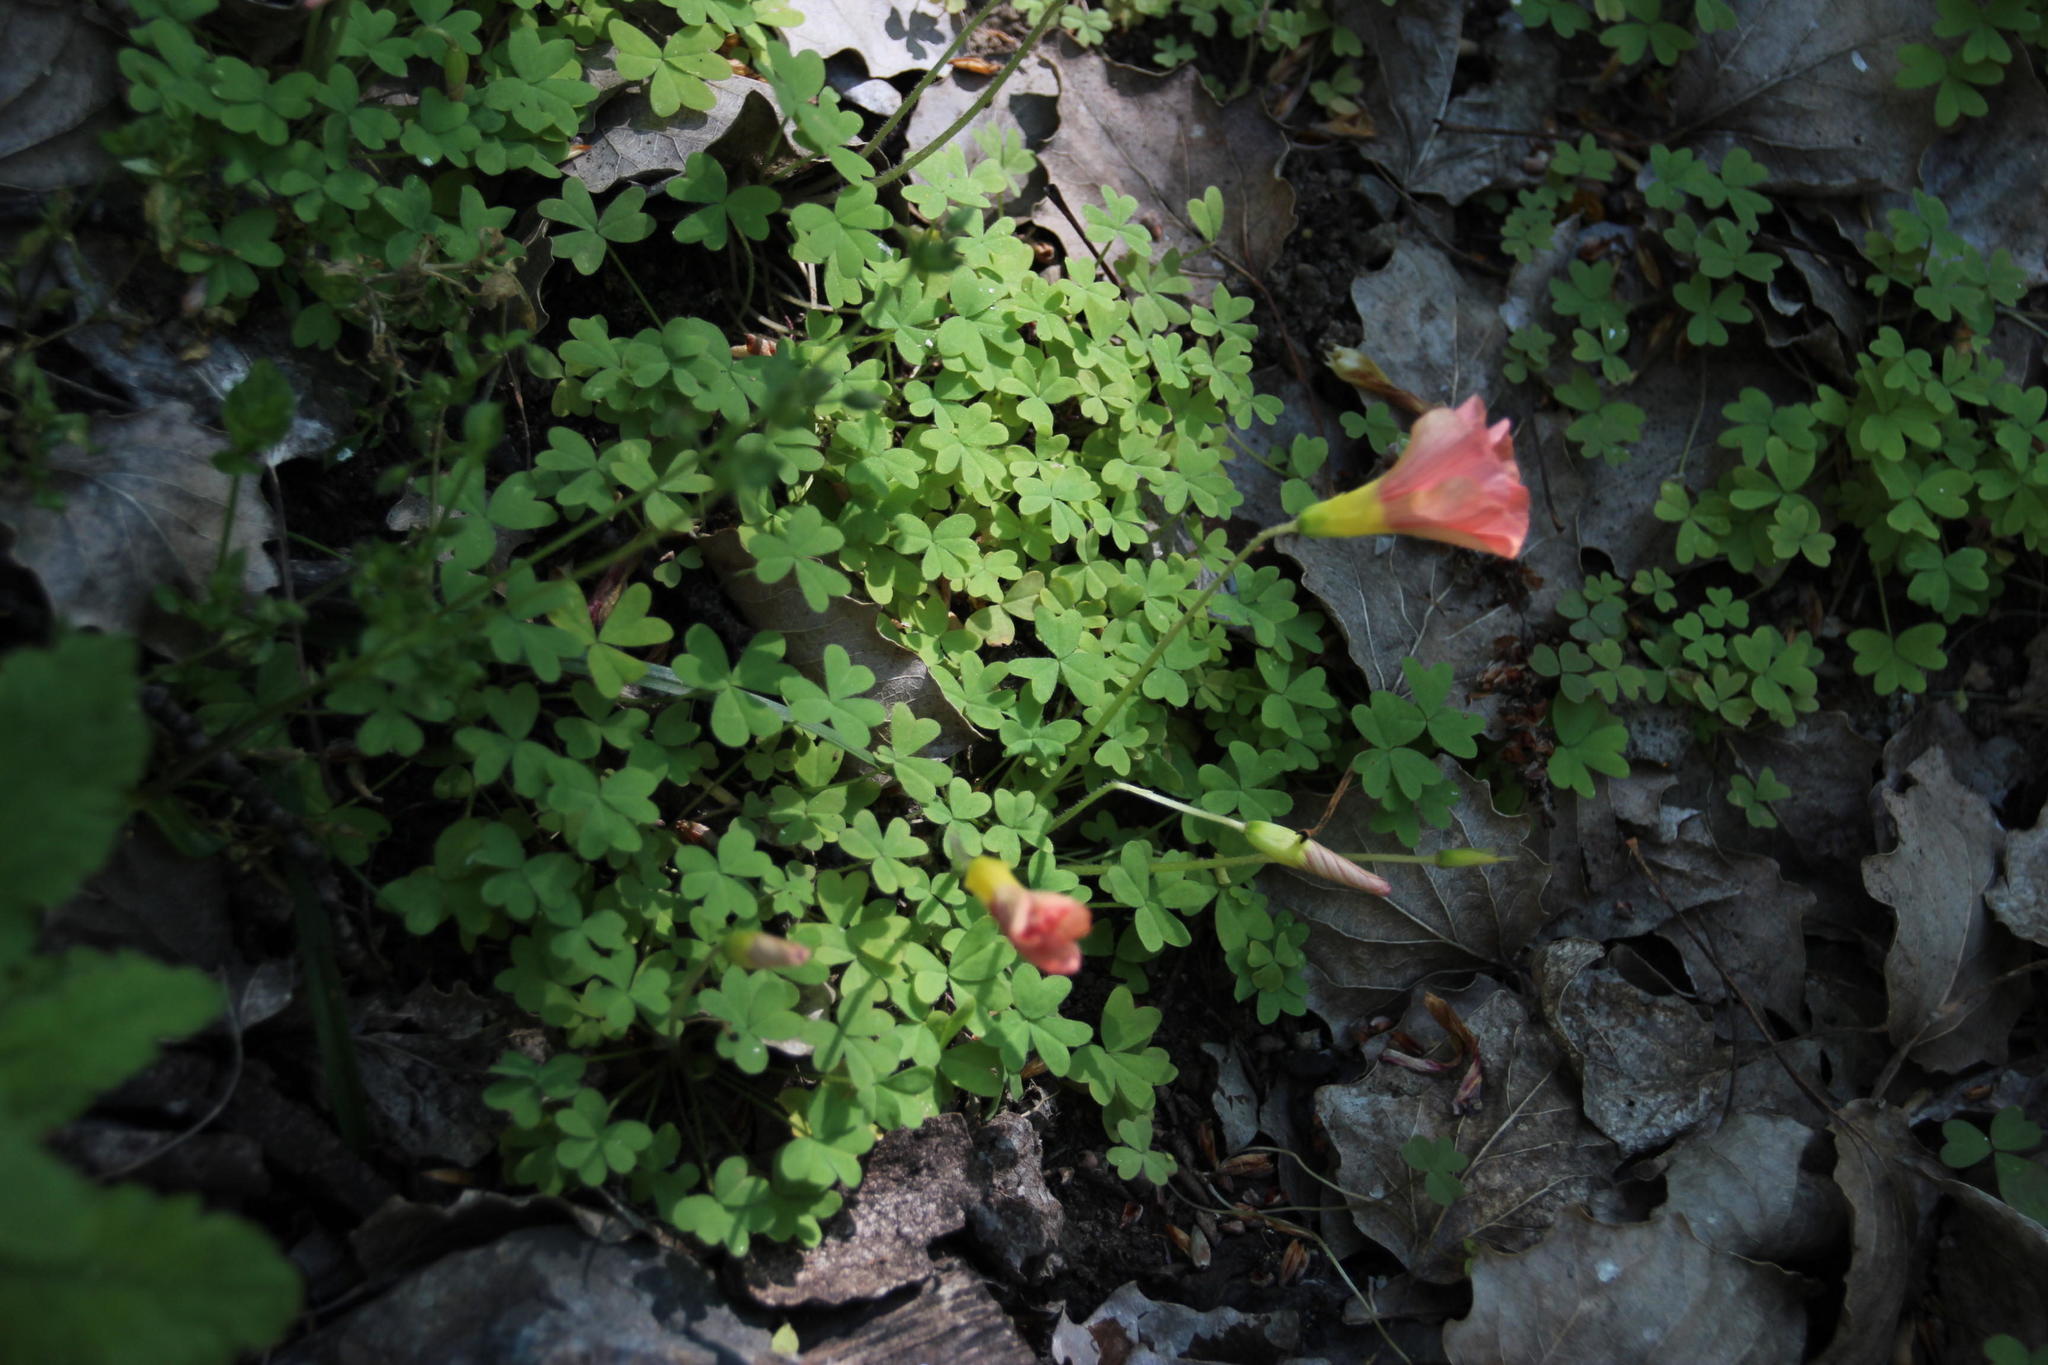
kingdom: Plantae
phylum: Tracheophyta
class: Magnoliopsida
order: Oxalidales
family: Oxalidaceae
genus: Oxalis
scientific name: Oxalis obtusa
